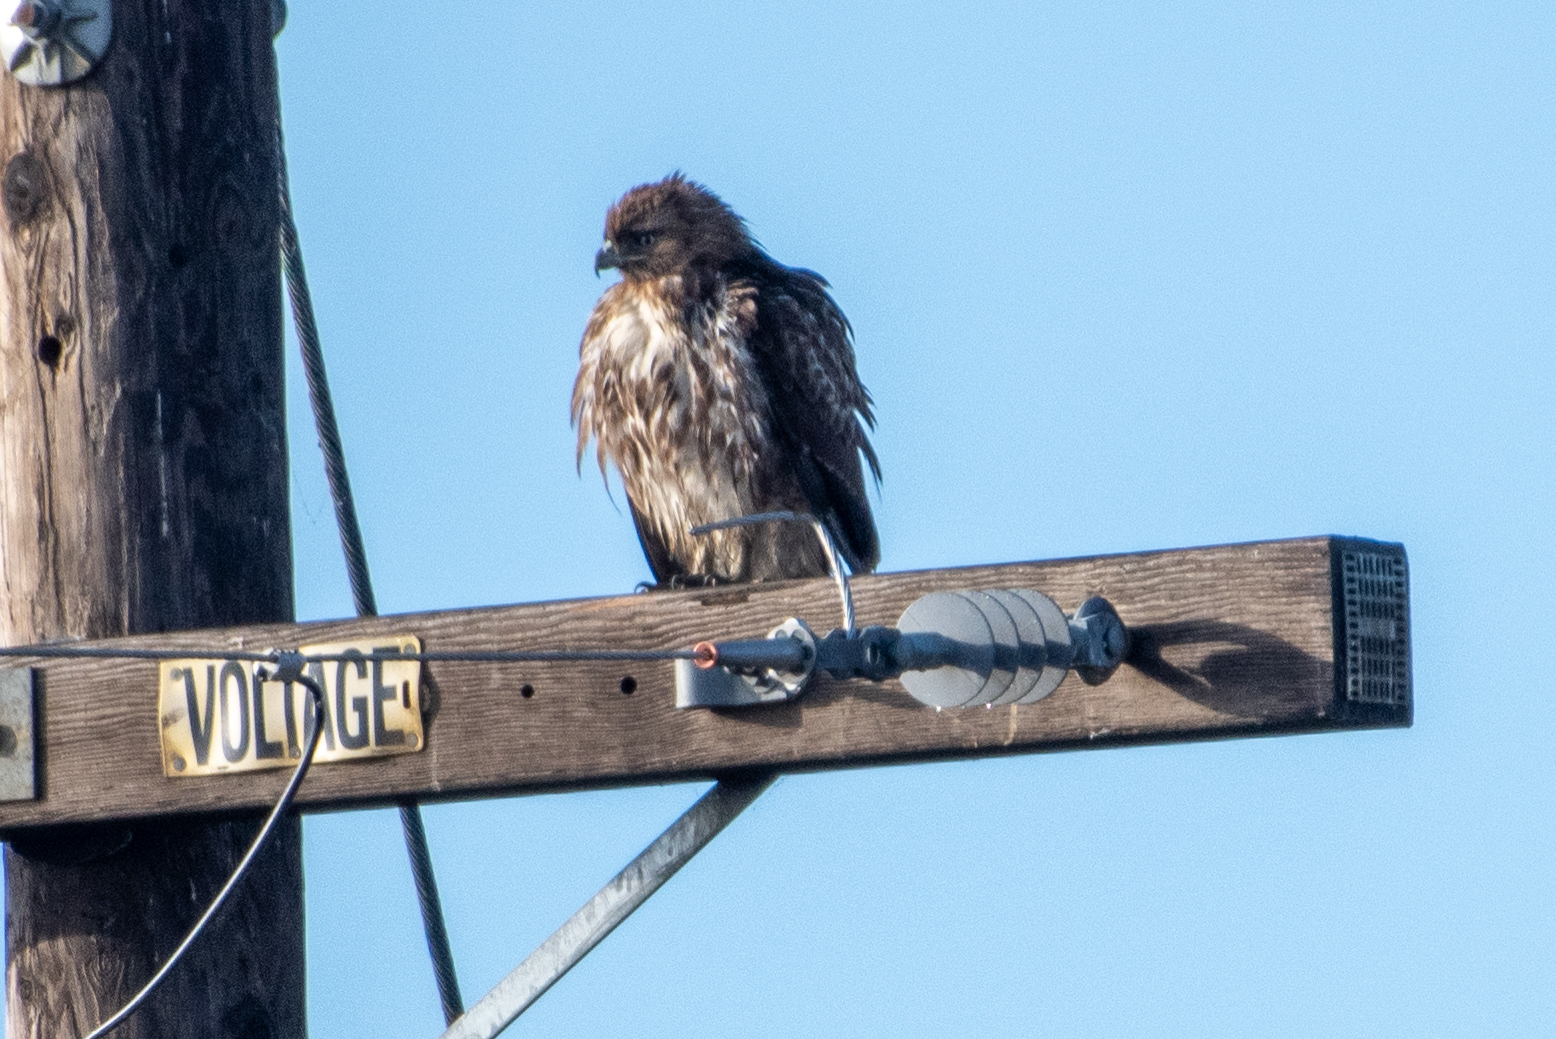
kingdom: Animalia
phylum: Chordata
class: Aves
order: Accipitriformes
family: Accipitridae
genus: Buteo
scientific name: Buteo jamaicensis
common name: Red-tailed hawk
